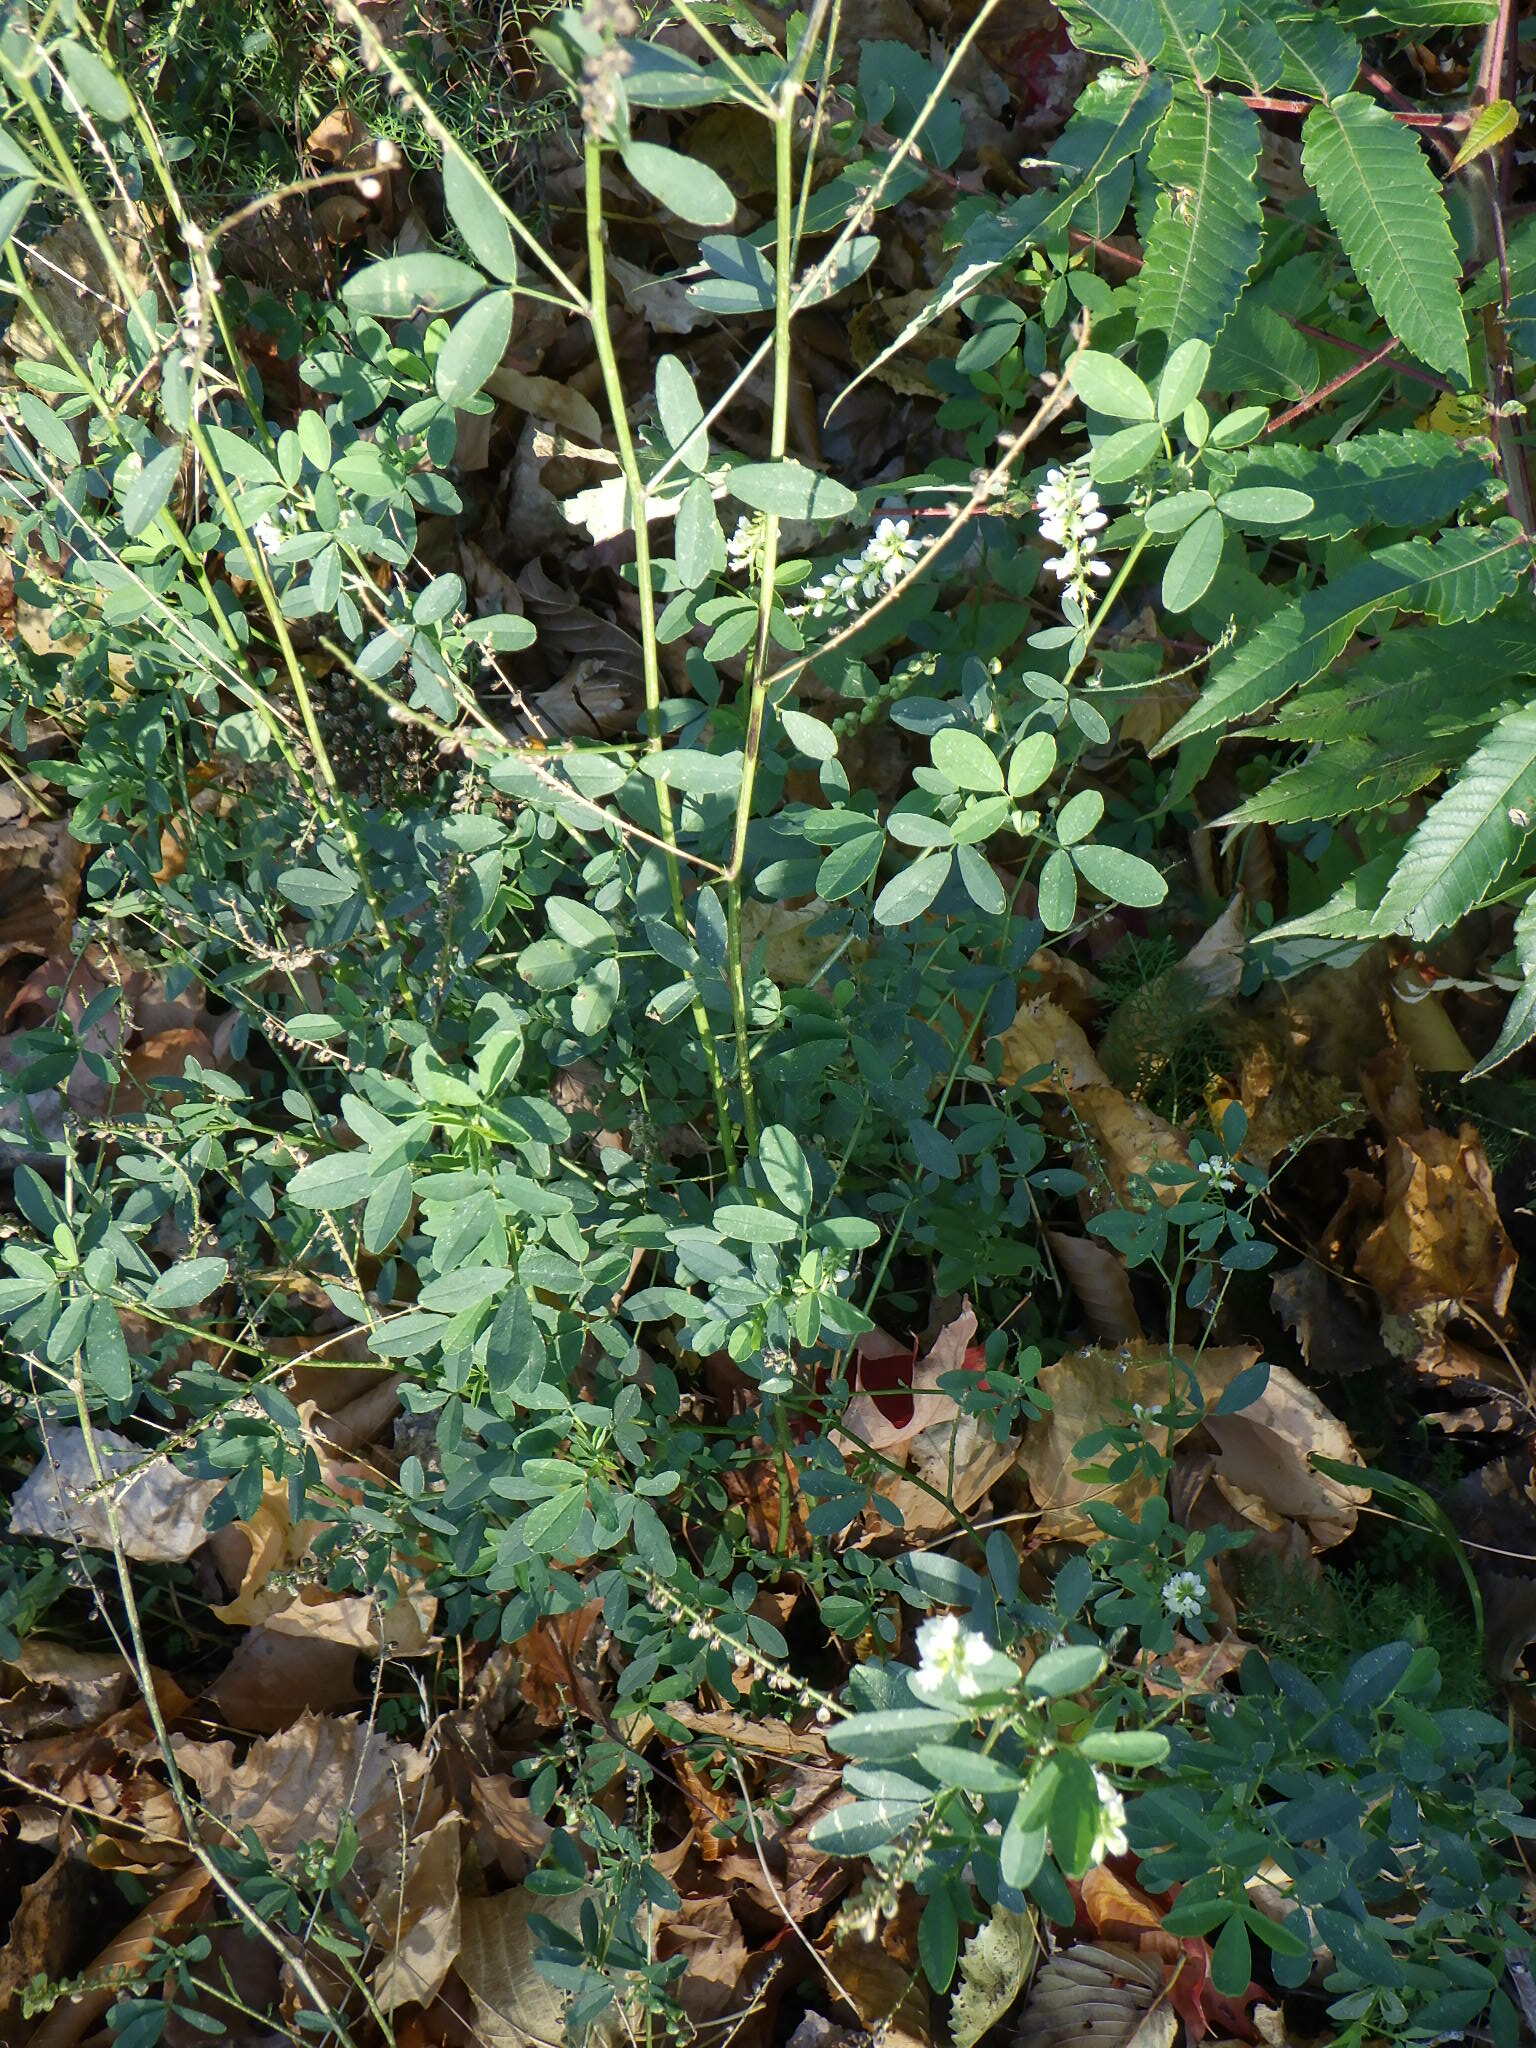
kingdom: Plantae
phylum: Tracheophyta
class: Magnoliopsida
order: Fabales
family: Fabaceae
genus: Melilotus
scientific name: Melilotus albus
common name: White melilot
